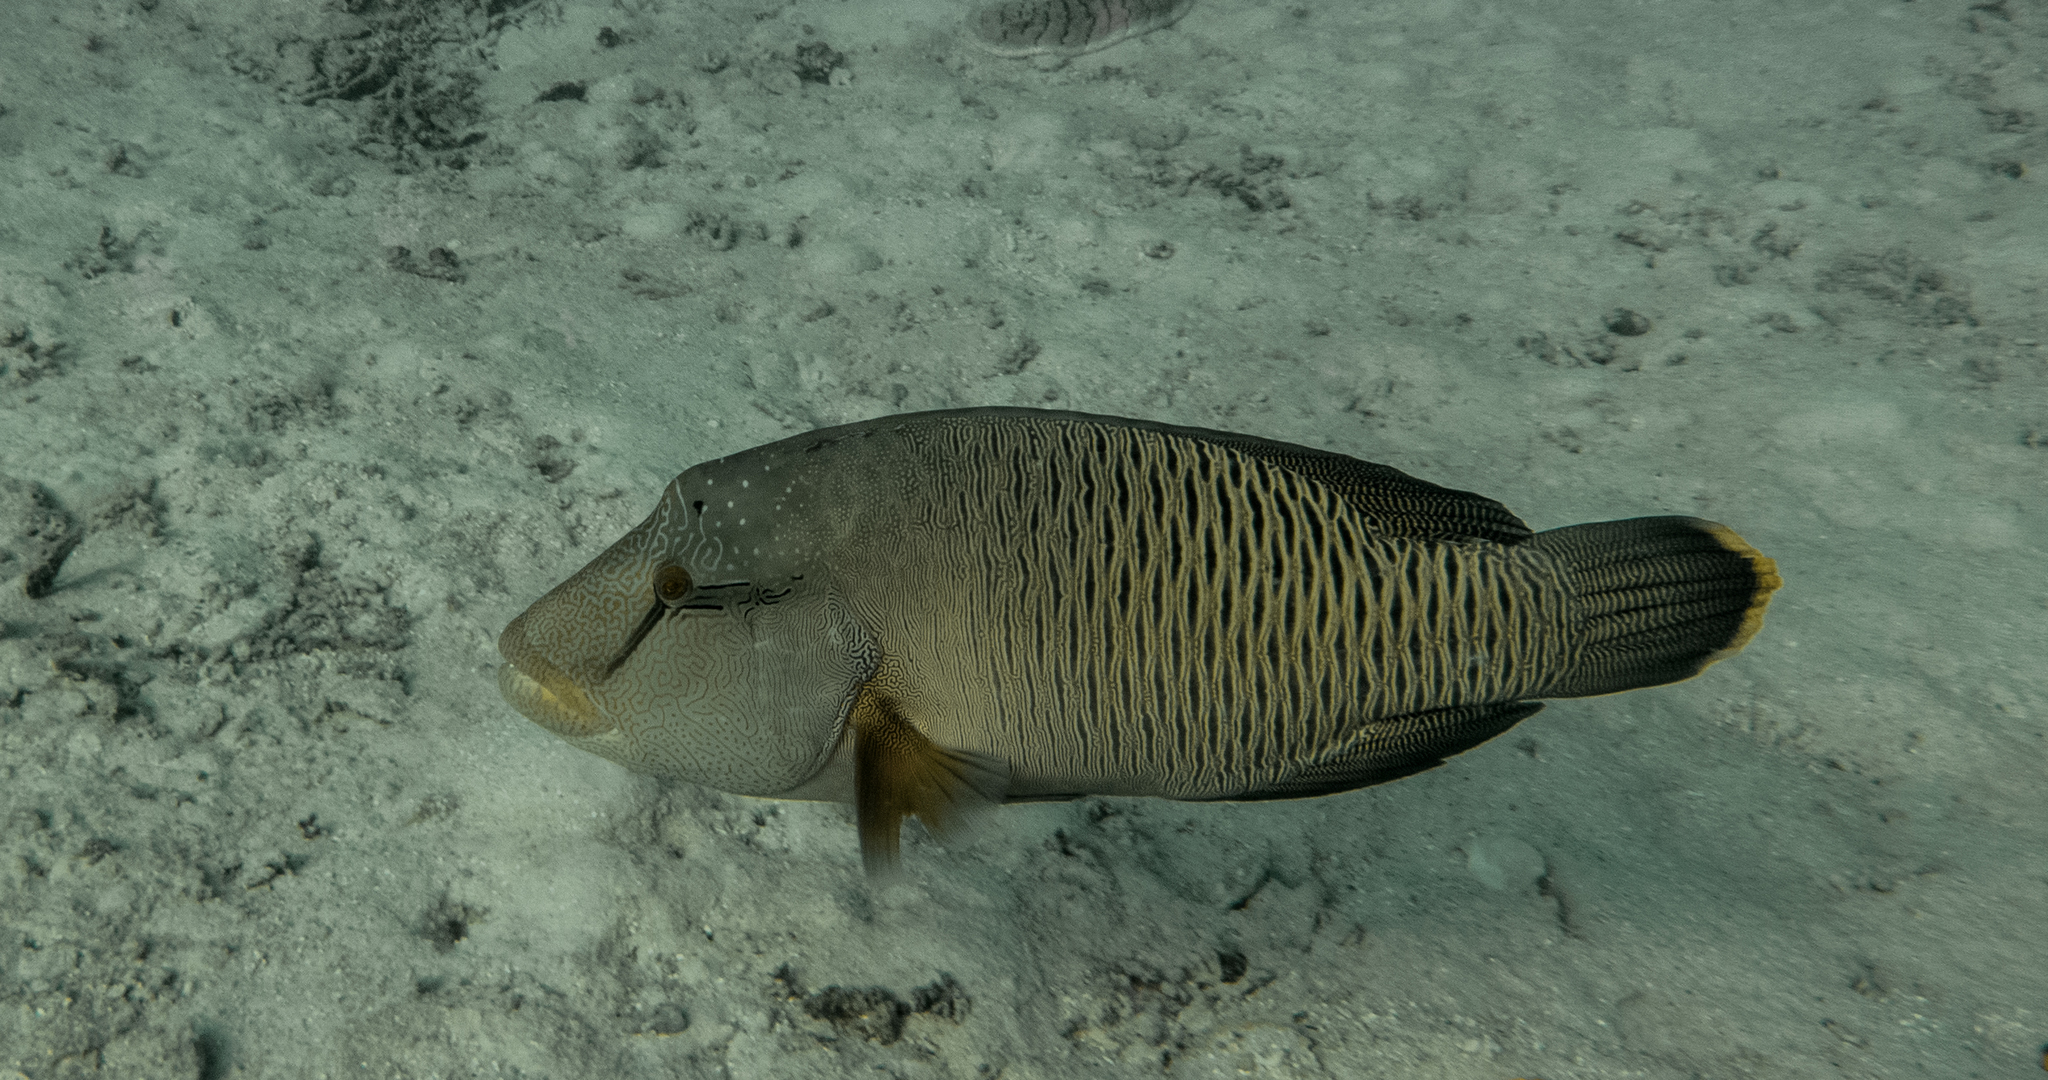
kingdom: Animalia
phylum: Chordata
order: Perciformes
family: Labridae
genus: Cheilinus
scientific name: Cheilinus undulatus
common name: Humphead wrasse
